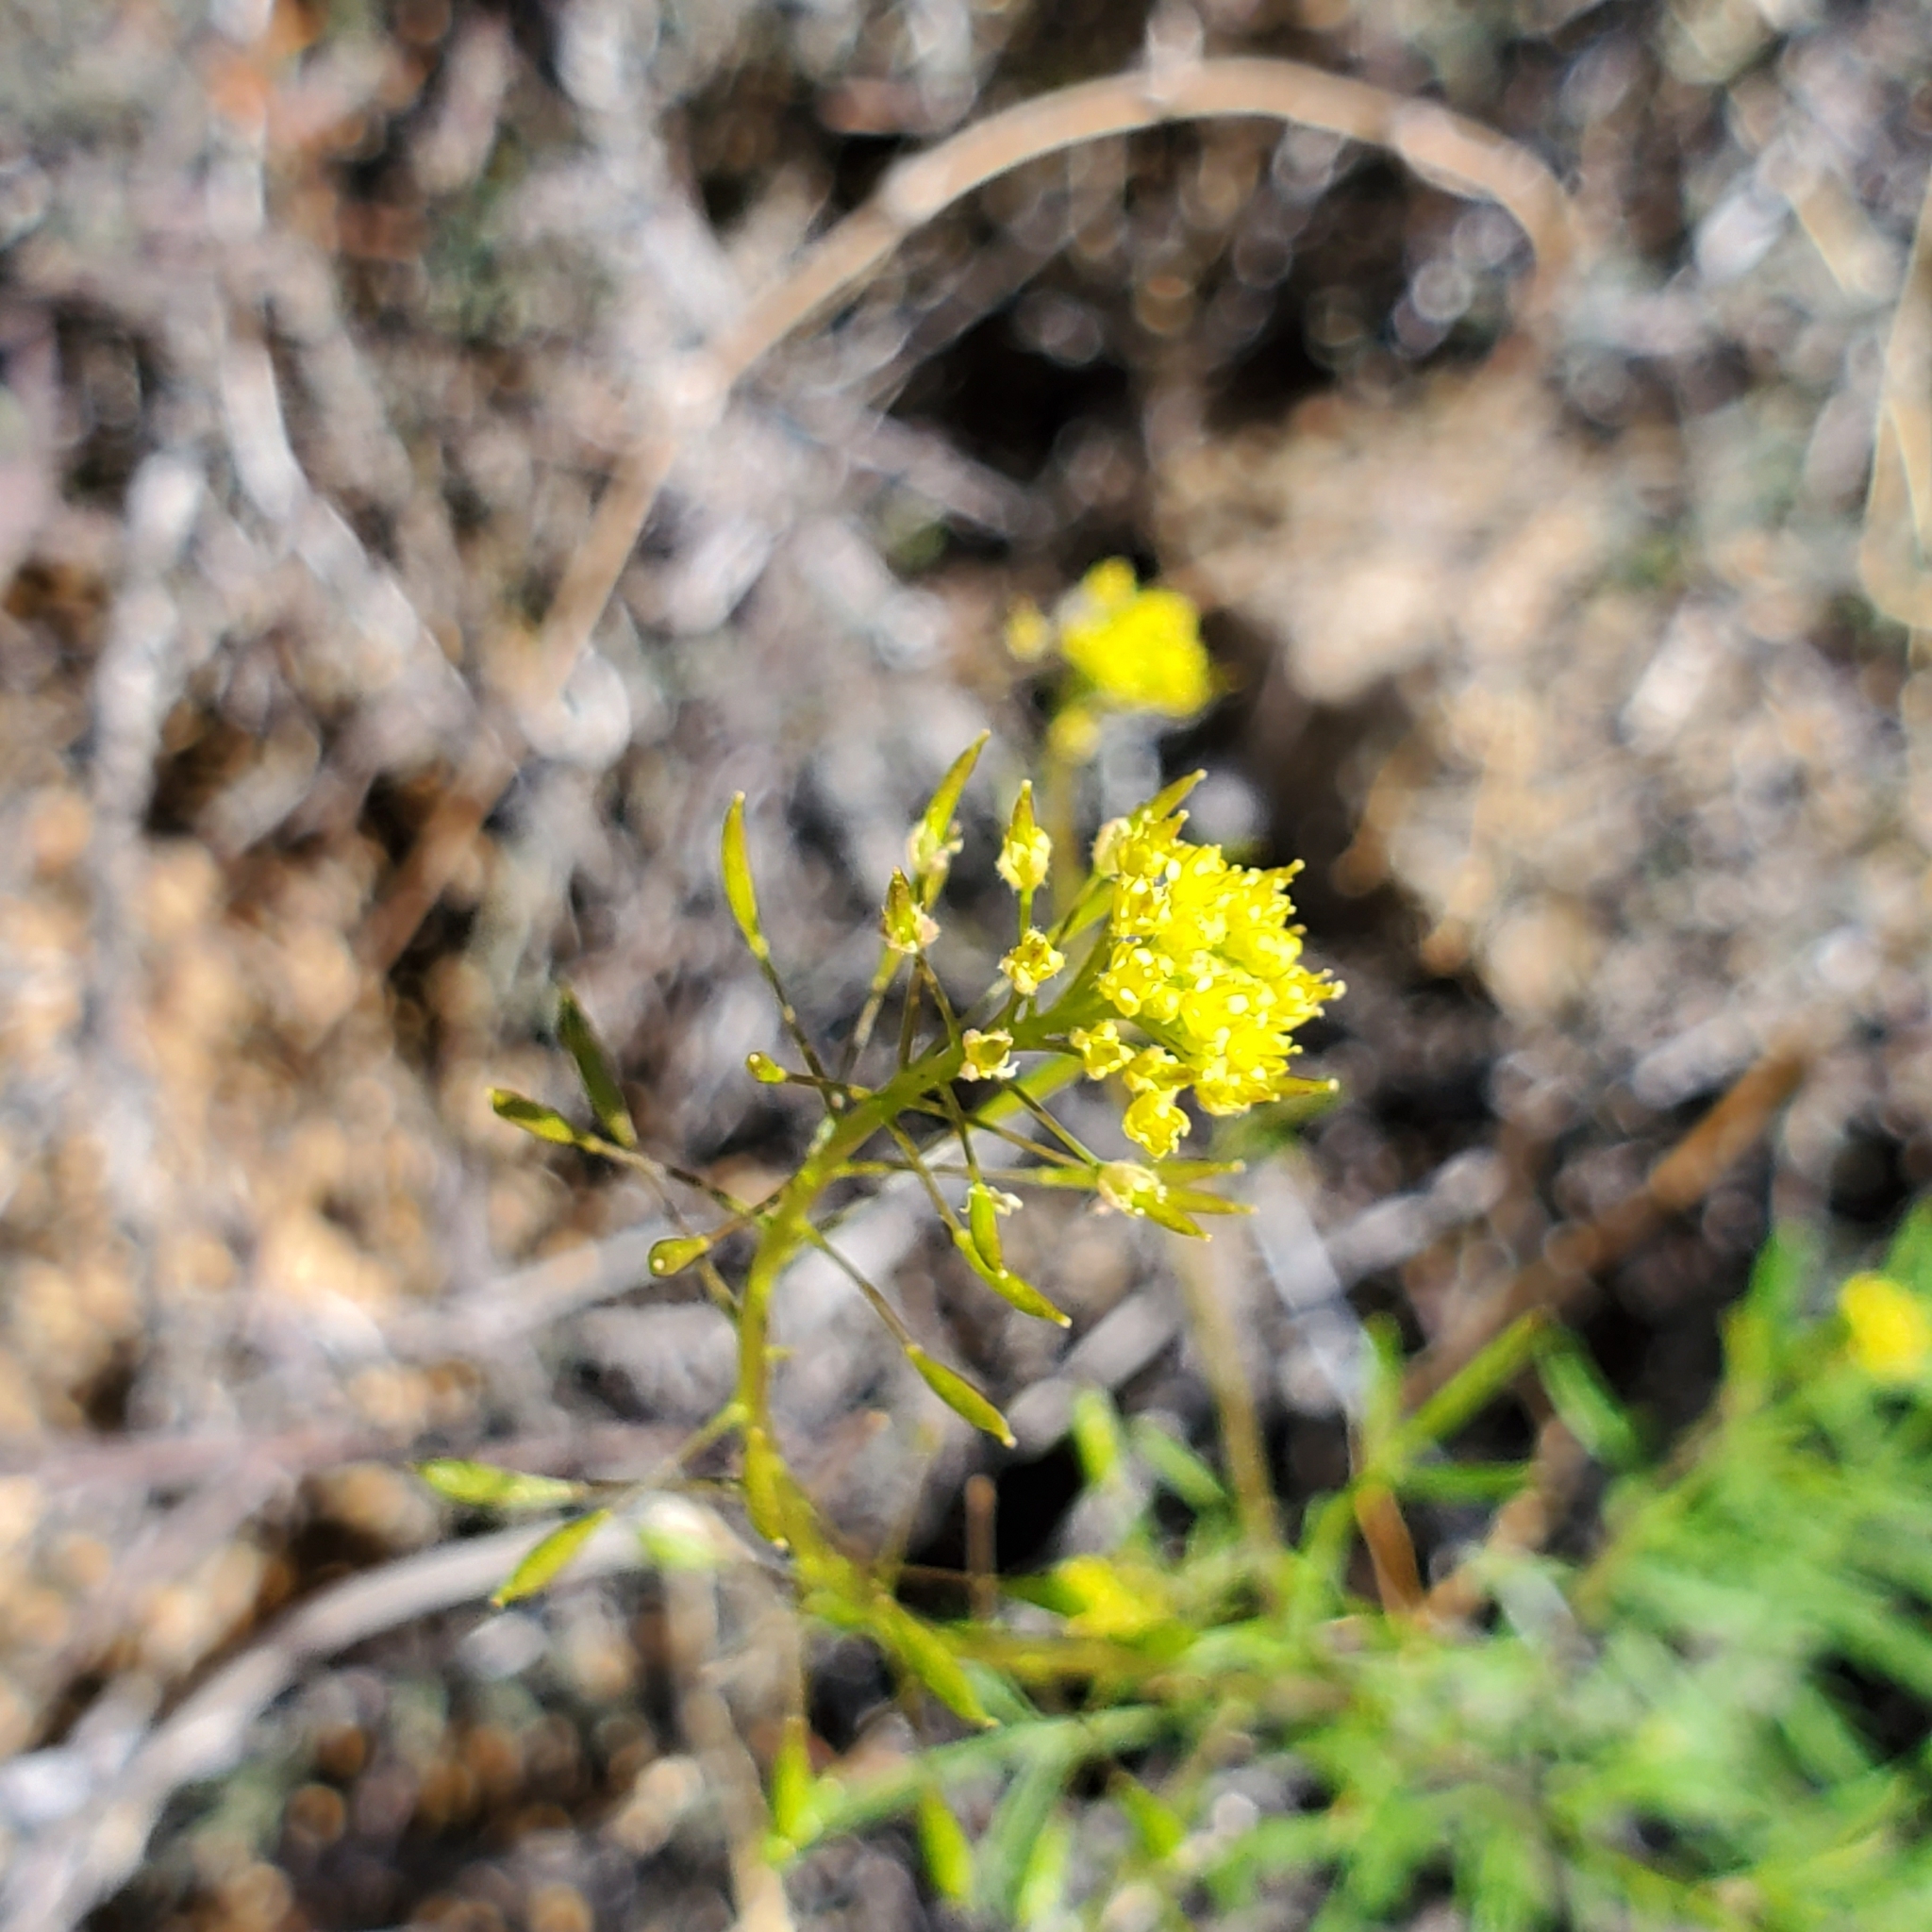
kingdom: Plantae
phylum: Tracheophyta
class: Magnoliopsida
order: Brassicales
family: Brassicaceae
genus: Descurainia
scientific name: Descurainia pinnata
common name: Western tansy mustard
